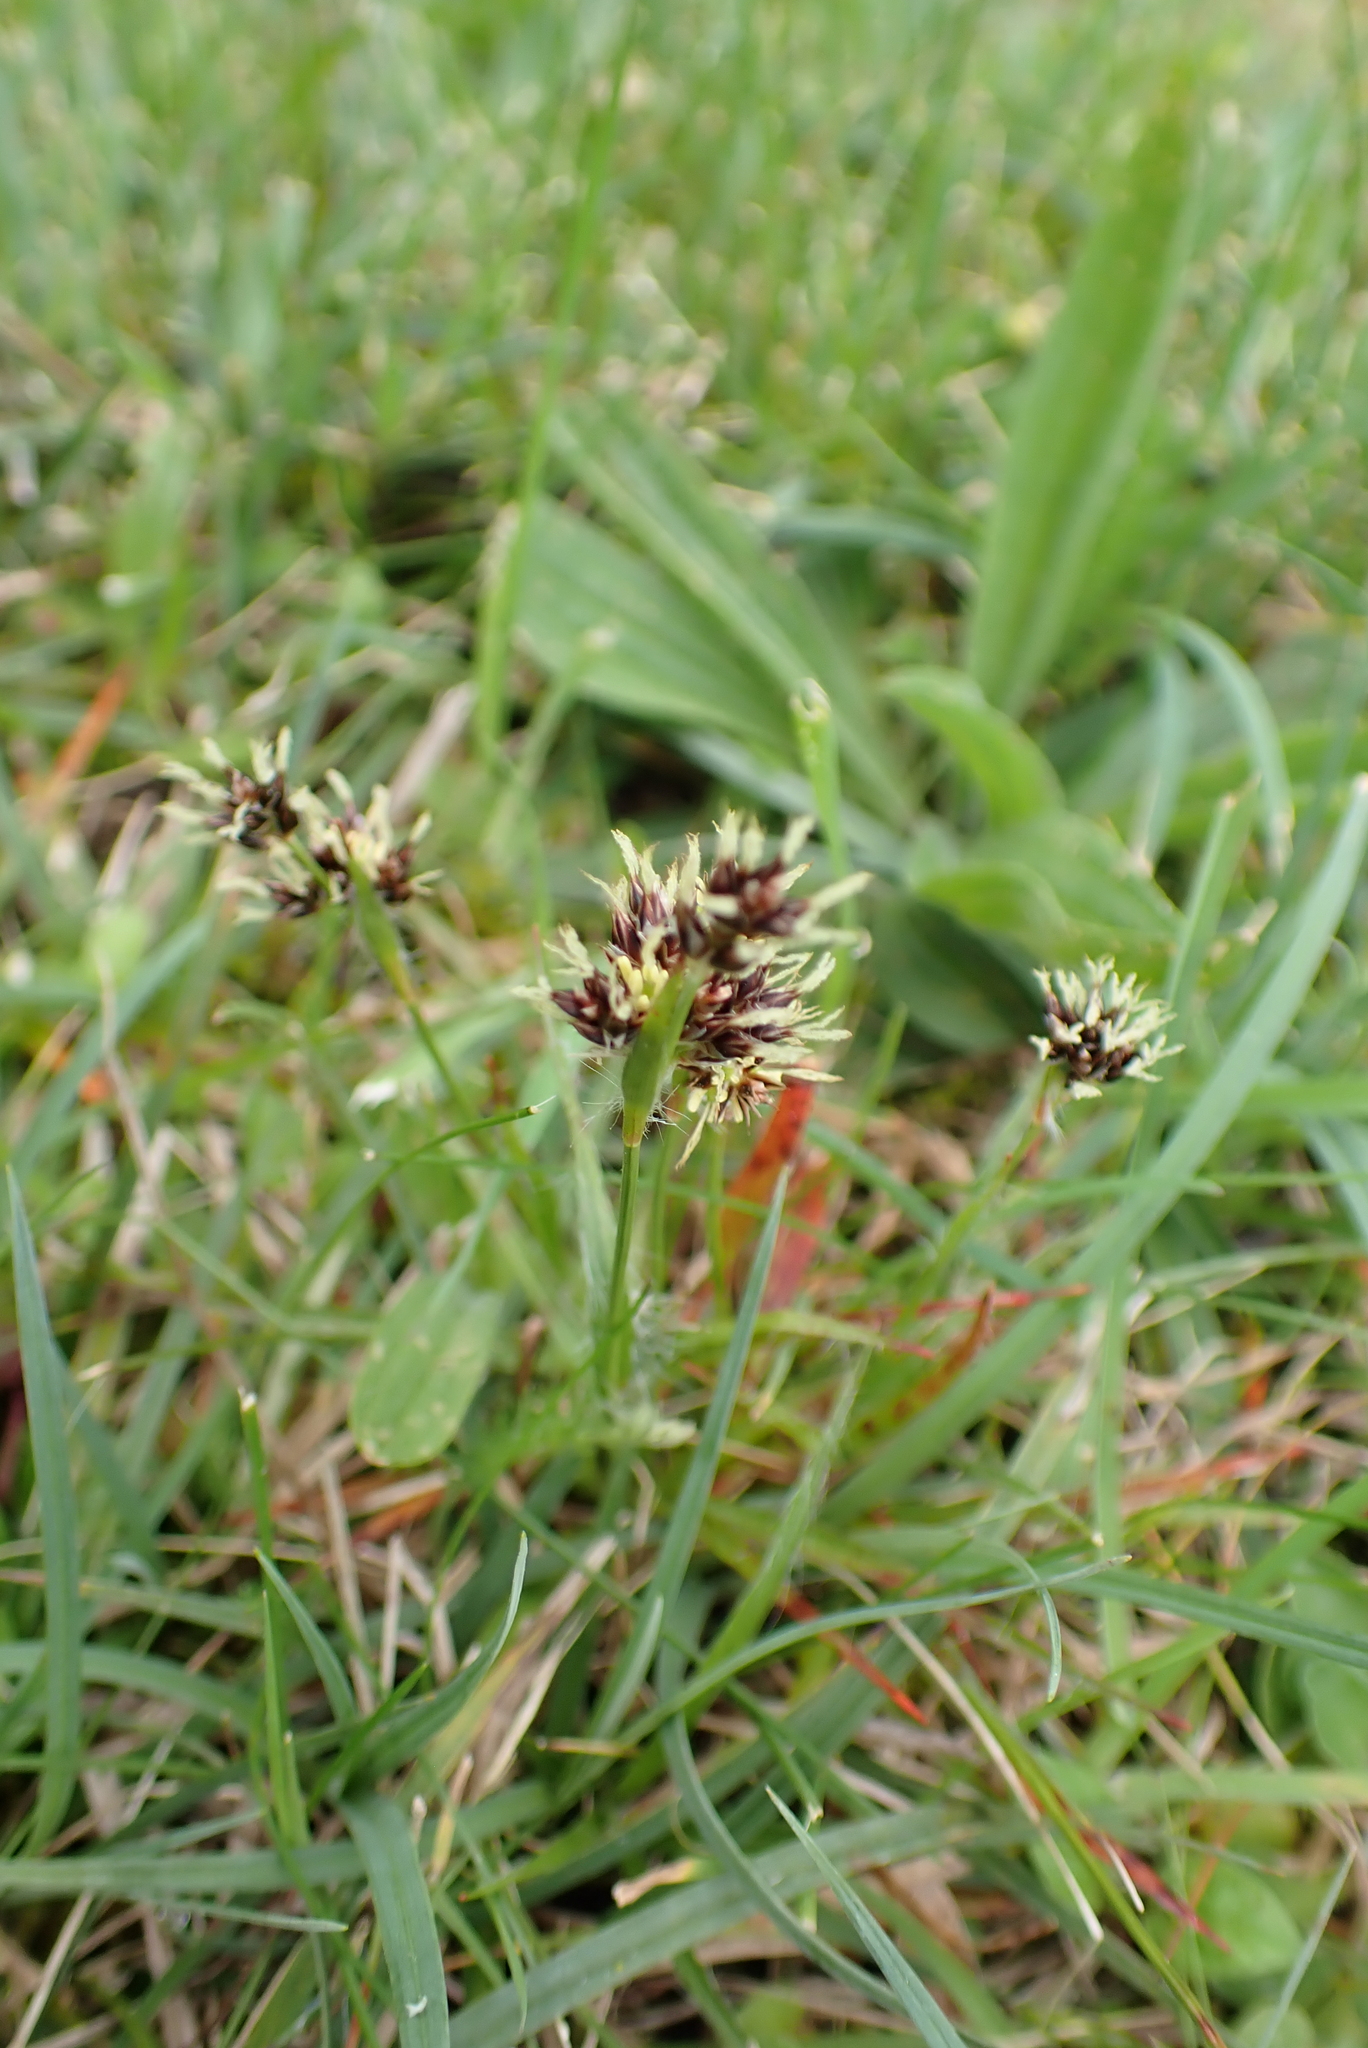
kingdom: Plantae
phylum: Tracheophyta
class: Liliopsida
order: Poales
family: Juncaceae
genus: Luzula
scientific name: Luzula campestris
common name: Field wood-rush
